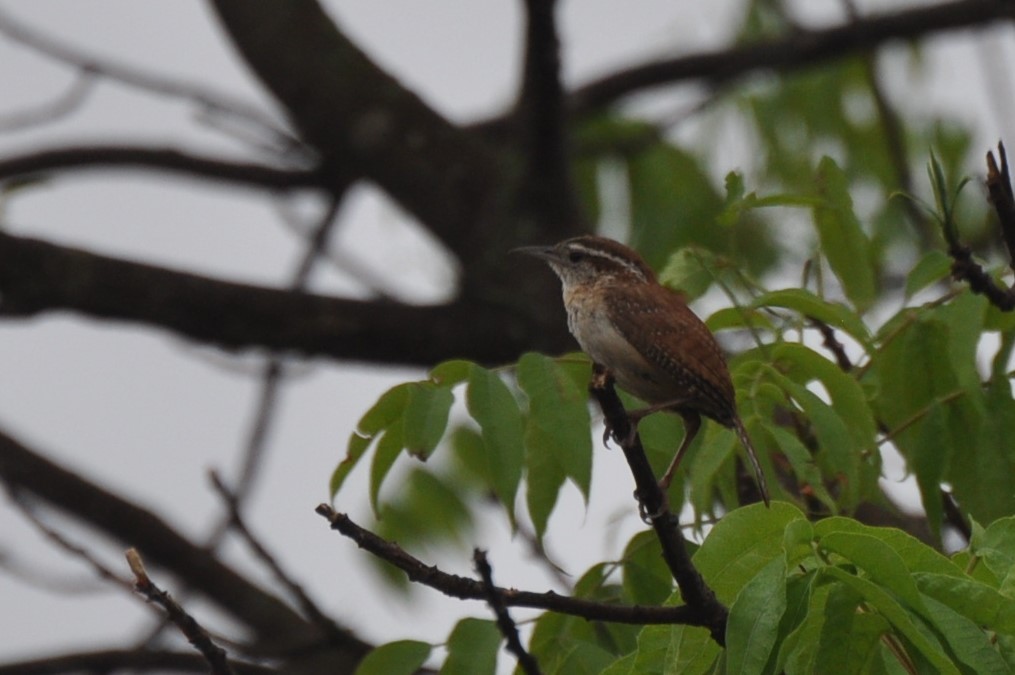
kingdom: Animalia
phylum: Chordata
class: Aves
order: Passeriformes
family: Troglodytidae
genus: Thryothorus
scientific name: Thryothorus ludovicianus
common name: Carolina wren
